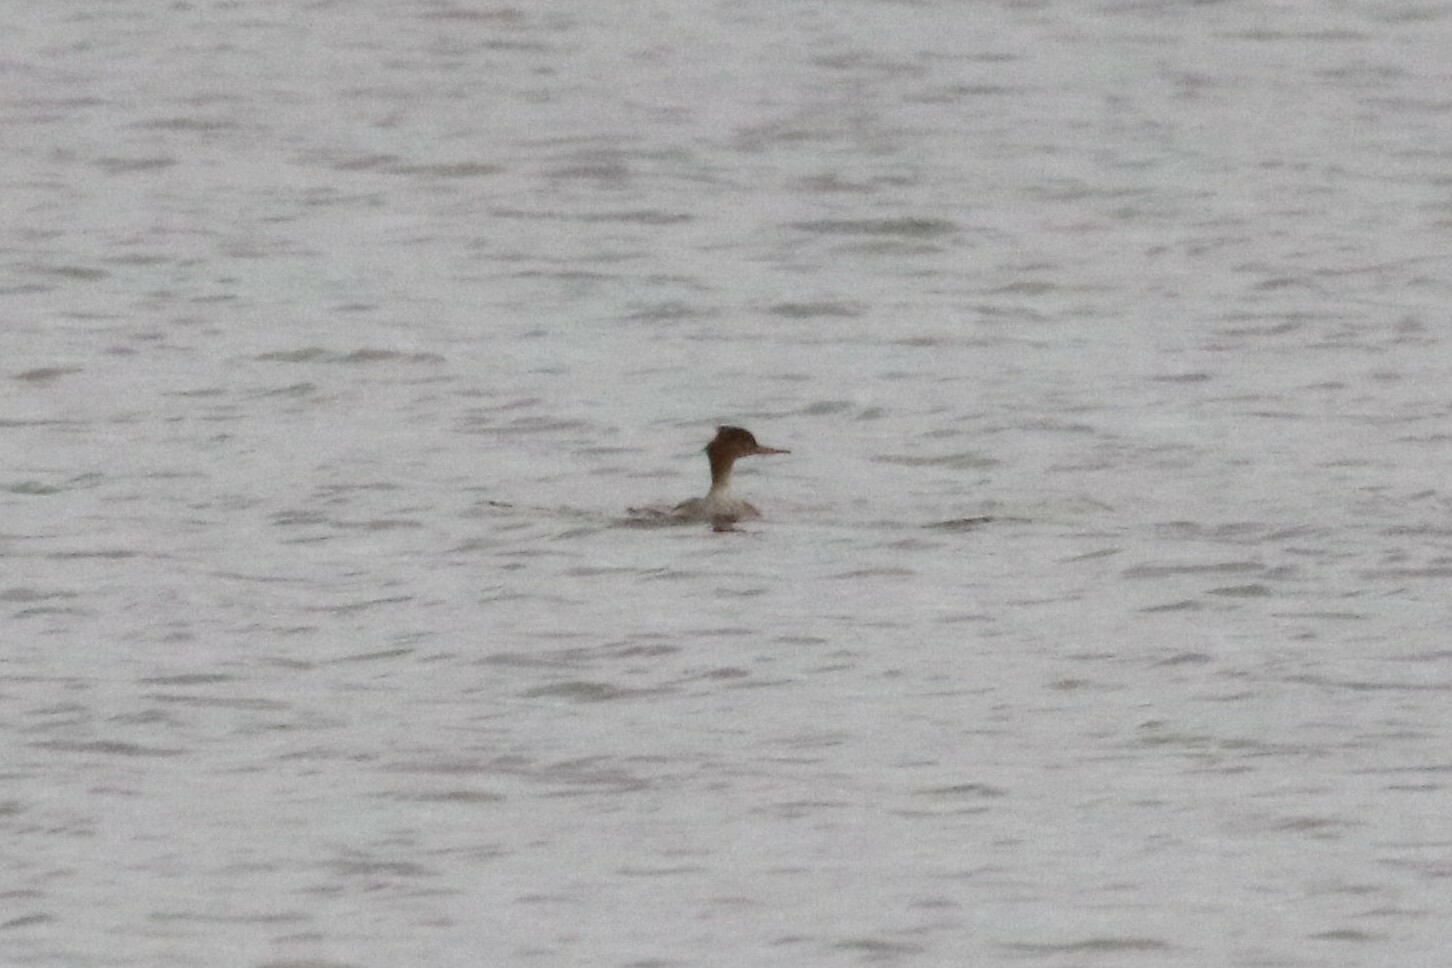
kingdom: Animalia
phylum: Chordata
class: Aves
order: Anseriformes
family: Anatidae
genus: Mergus
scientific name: Mergus serrator
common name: Red-breasted merganser
